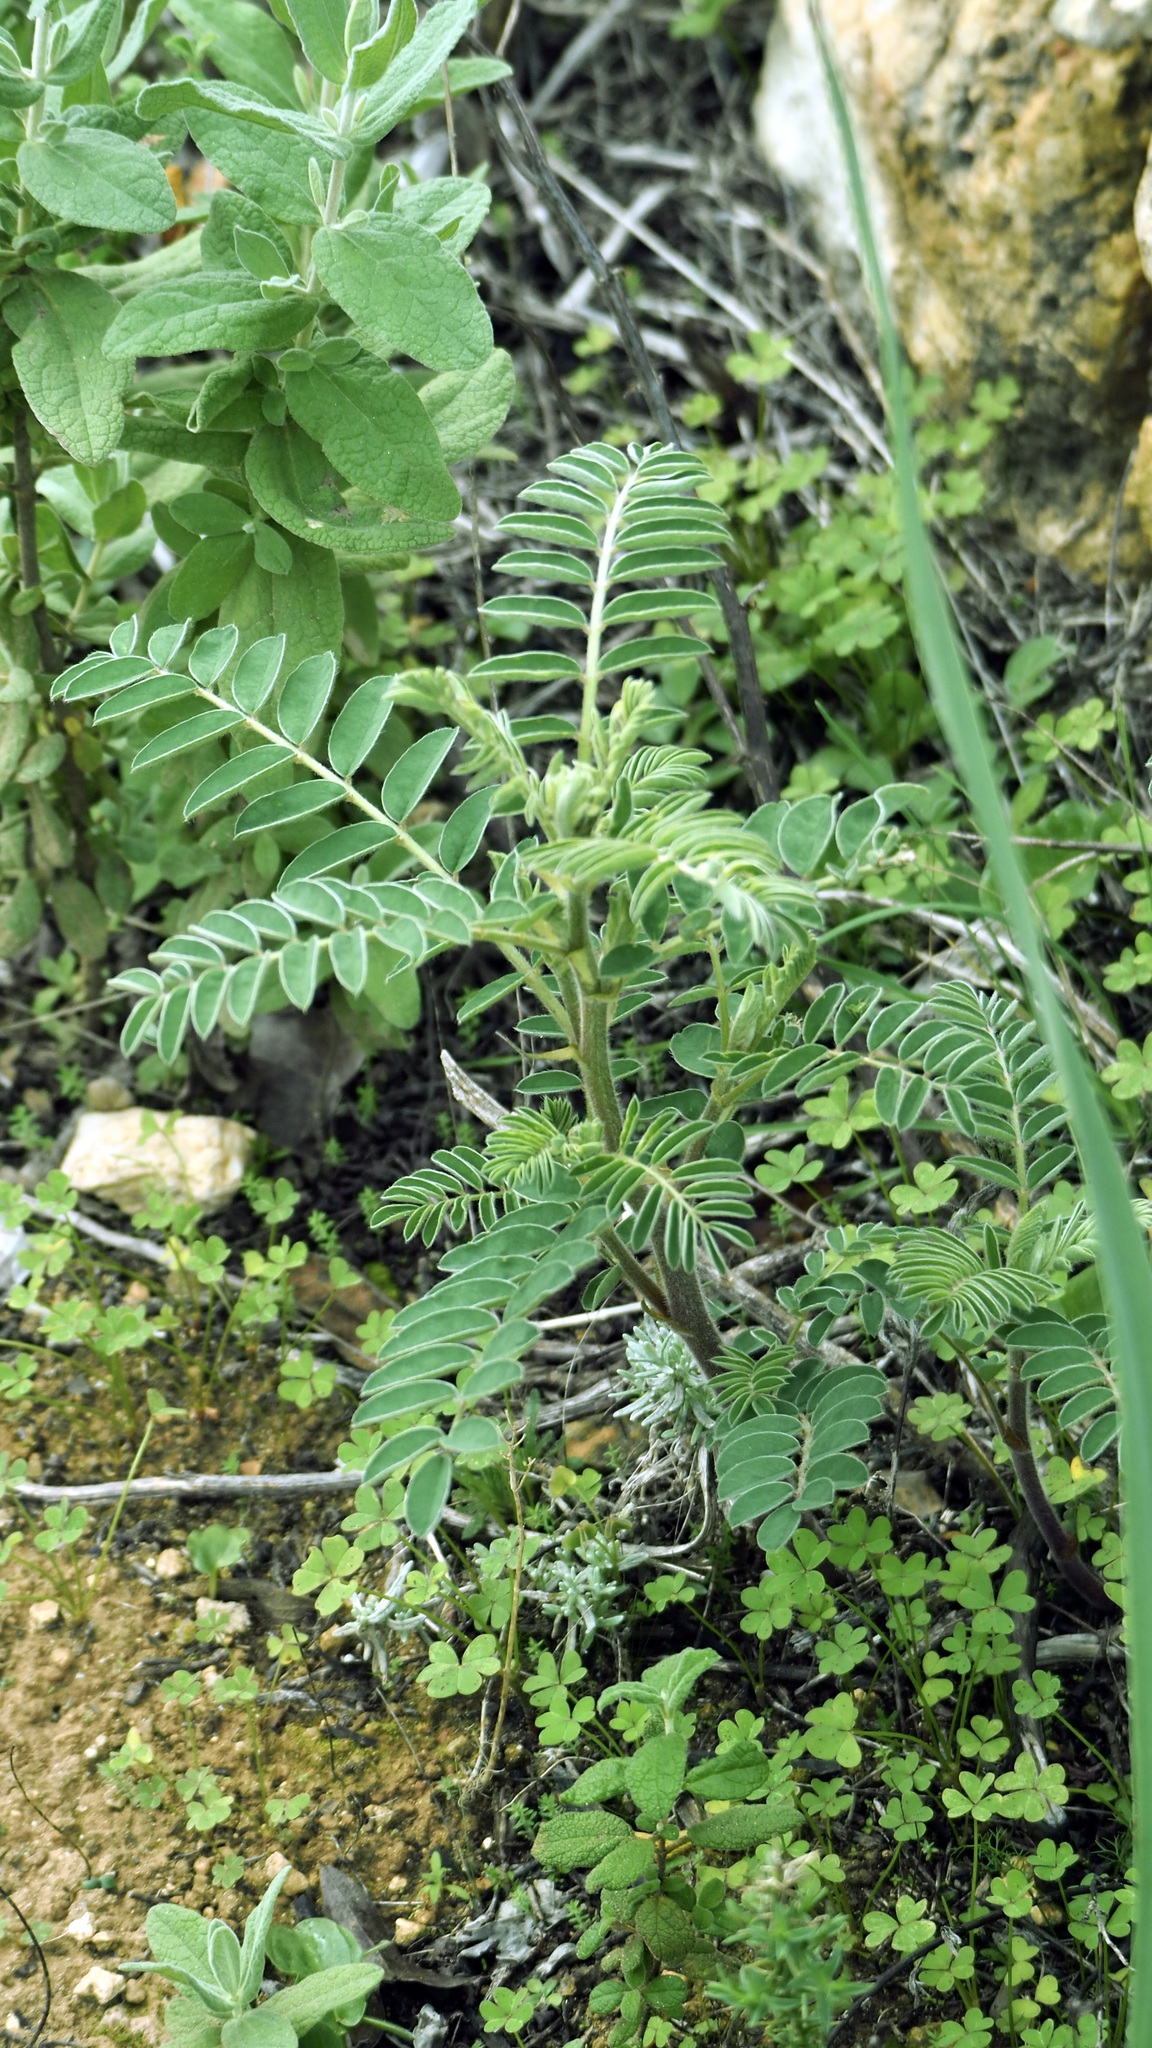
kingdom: Plantae
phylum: Tracheophyta
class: Magnoliopsida
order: Fabales
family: Fabaceae
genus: Erophaca
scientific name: Erophaca baetica
